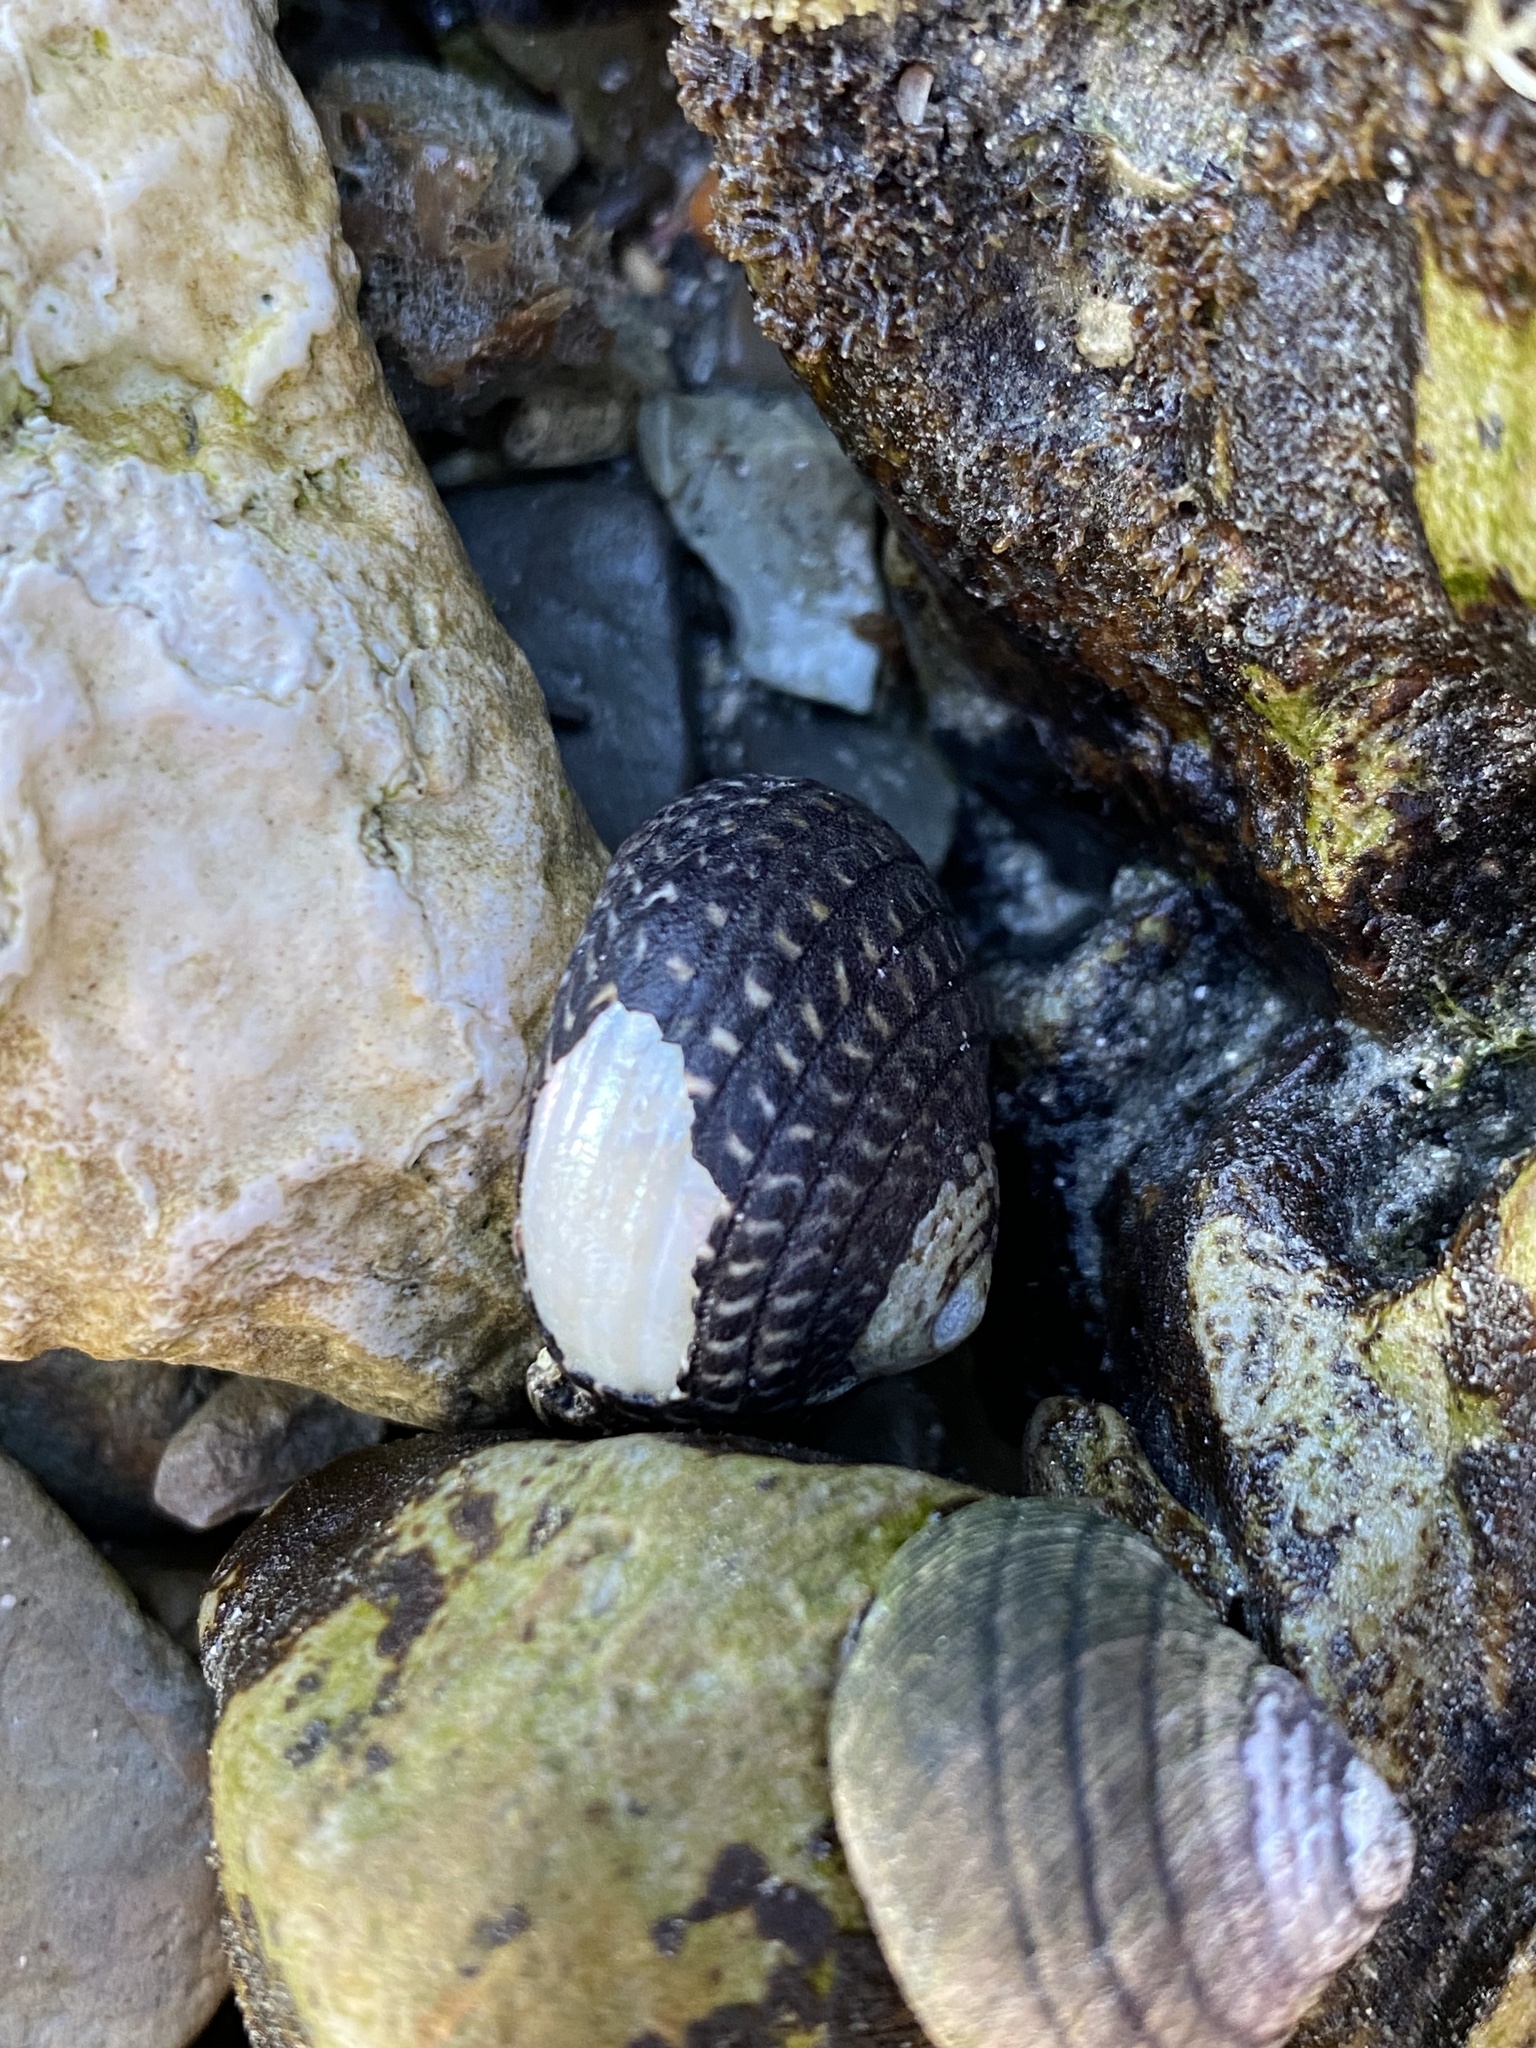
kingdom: Animalia
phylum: Mollusca
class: Gastropoda
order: Trochida
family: Trochidae
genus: Diloma
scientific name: Diloma aethiops
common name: Scorched monodont
